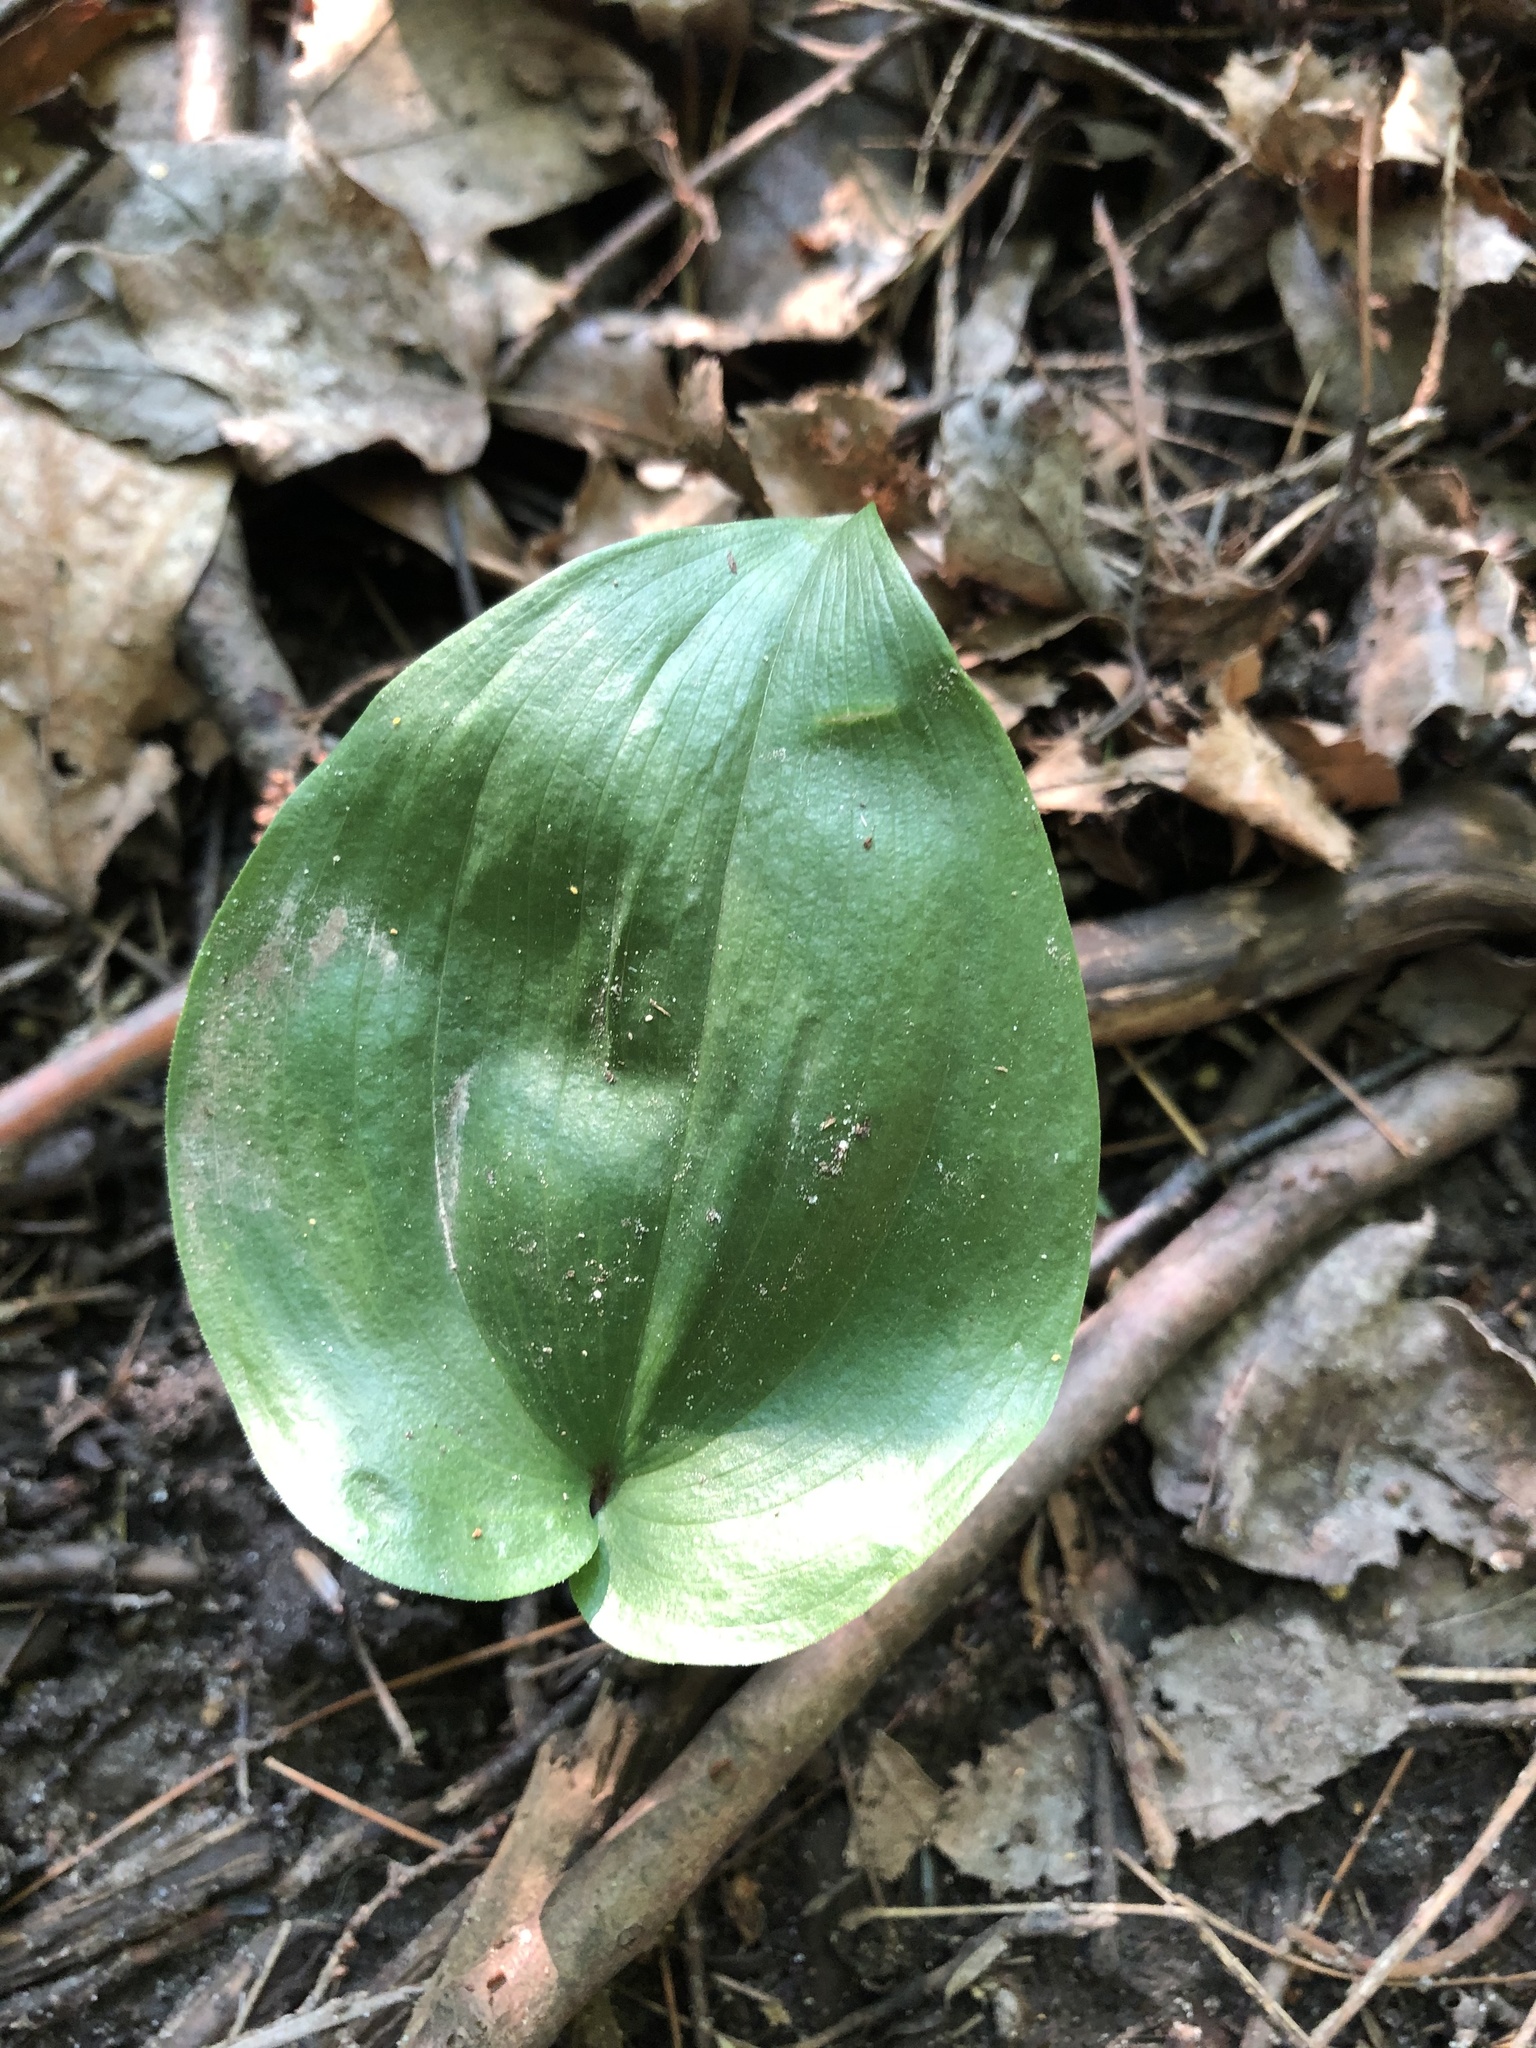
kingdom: Plantae
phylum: Tracheophyta
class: Liliopsida
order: Asparagales
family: Asparagaceae
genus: Maianthemum
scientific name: Maianthemum canadense
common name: False lily-of-the-valley
